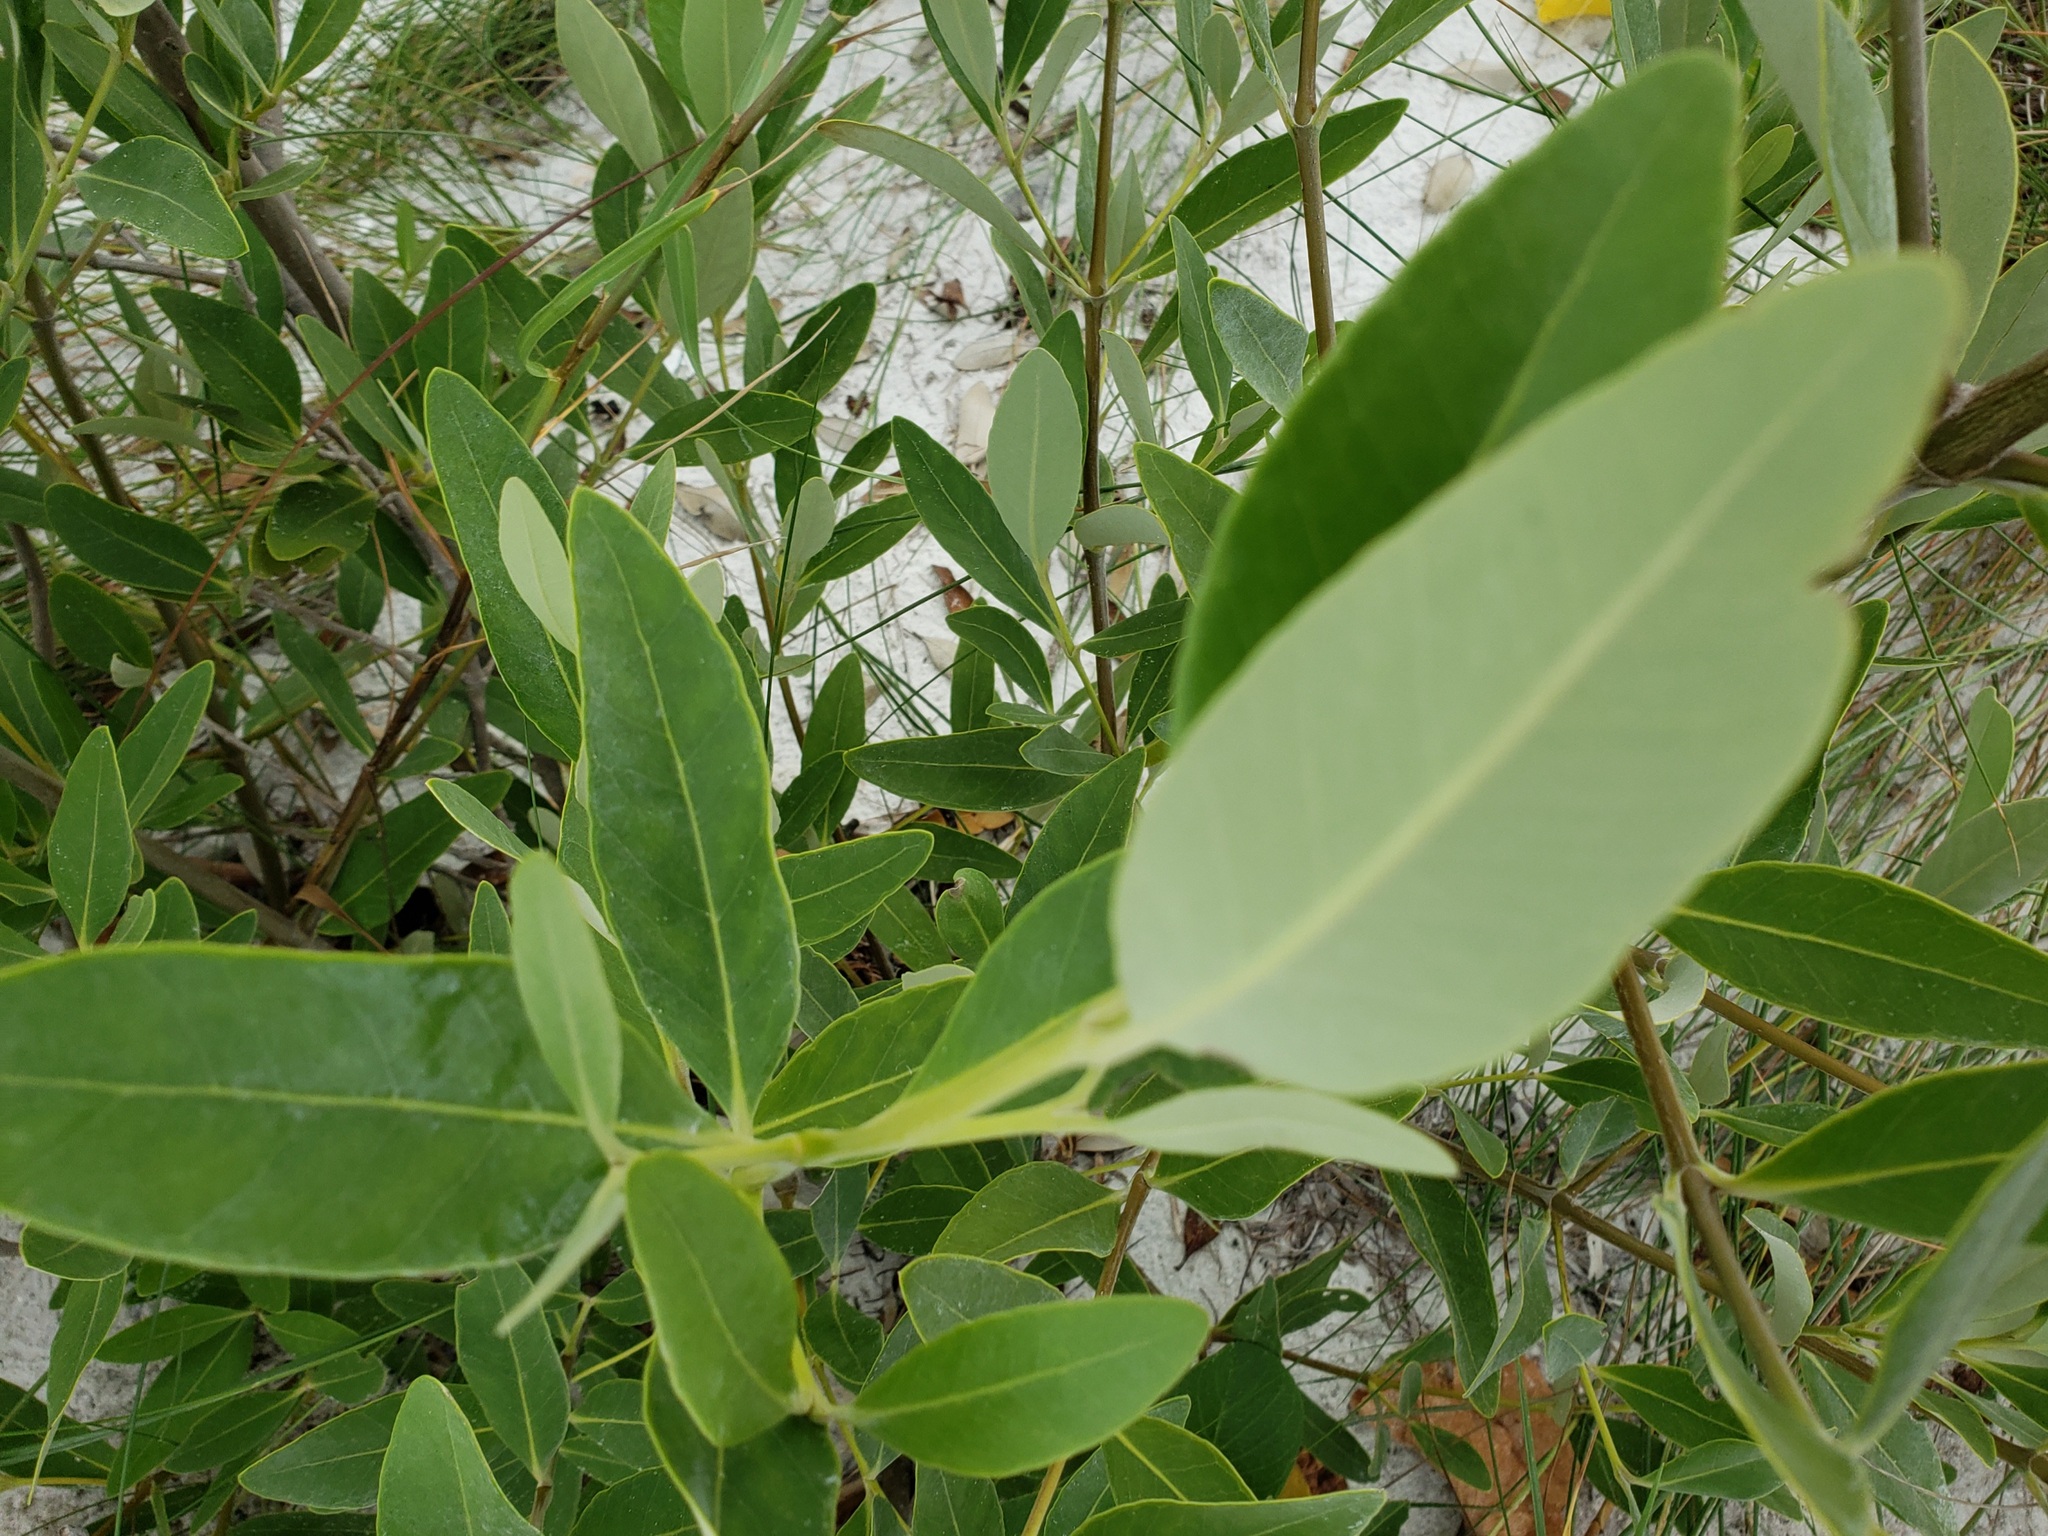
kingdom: Plantae
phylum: Tracheophyta
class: Magnoliopsida
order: Lamiales
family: Acanthaceae
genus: Avicennia
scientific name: Avicennia germinans
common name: Black mangrove
